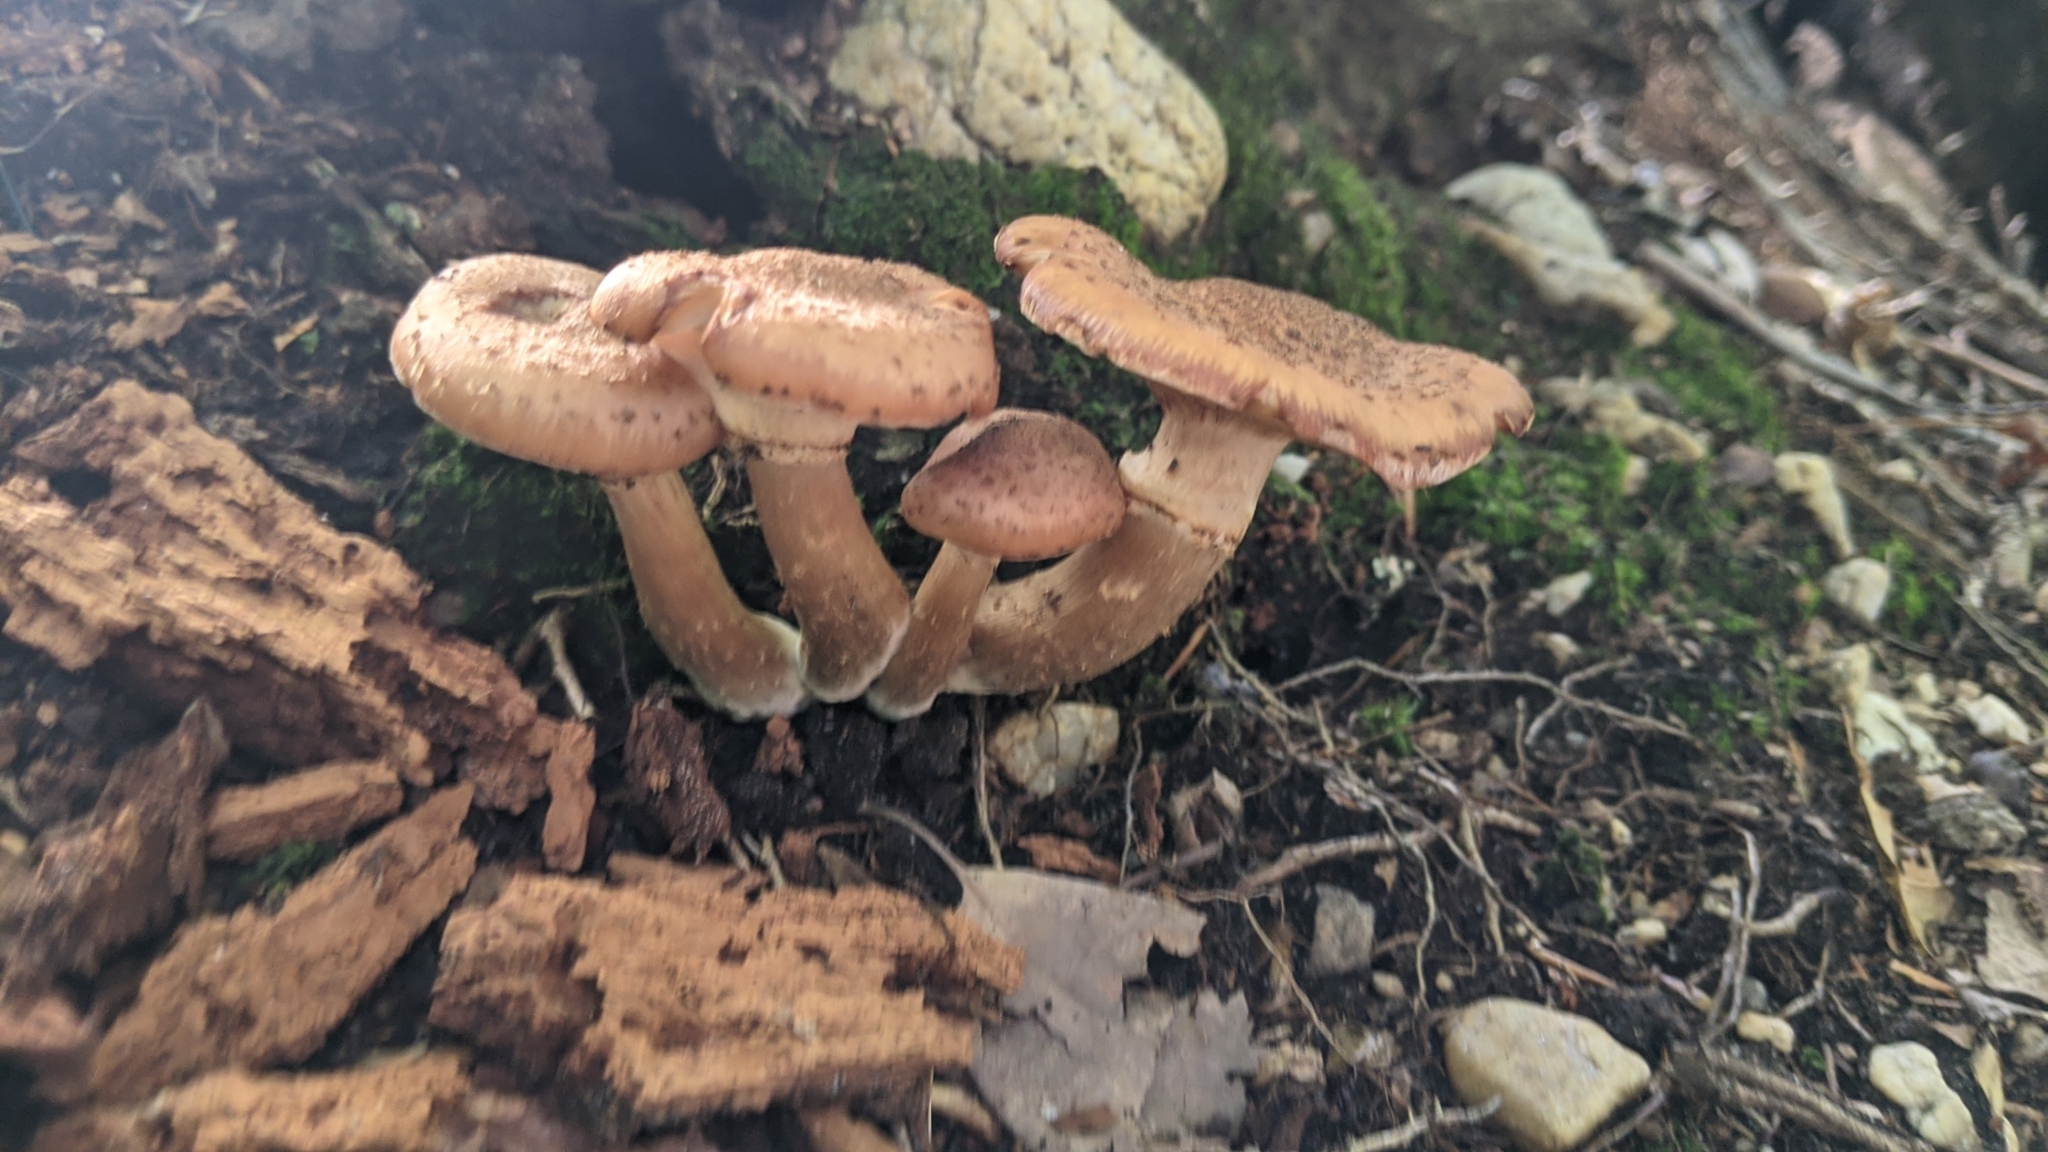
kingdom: Fungi
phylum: Basidiomycota
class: Agaricomycetes
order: Agaricales
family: Physalacriaceae
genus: Armillaria
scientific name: Armillaria mellea
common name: Honey fungus
